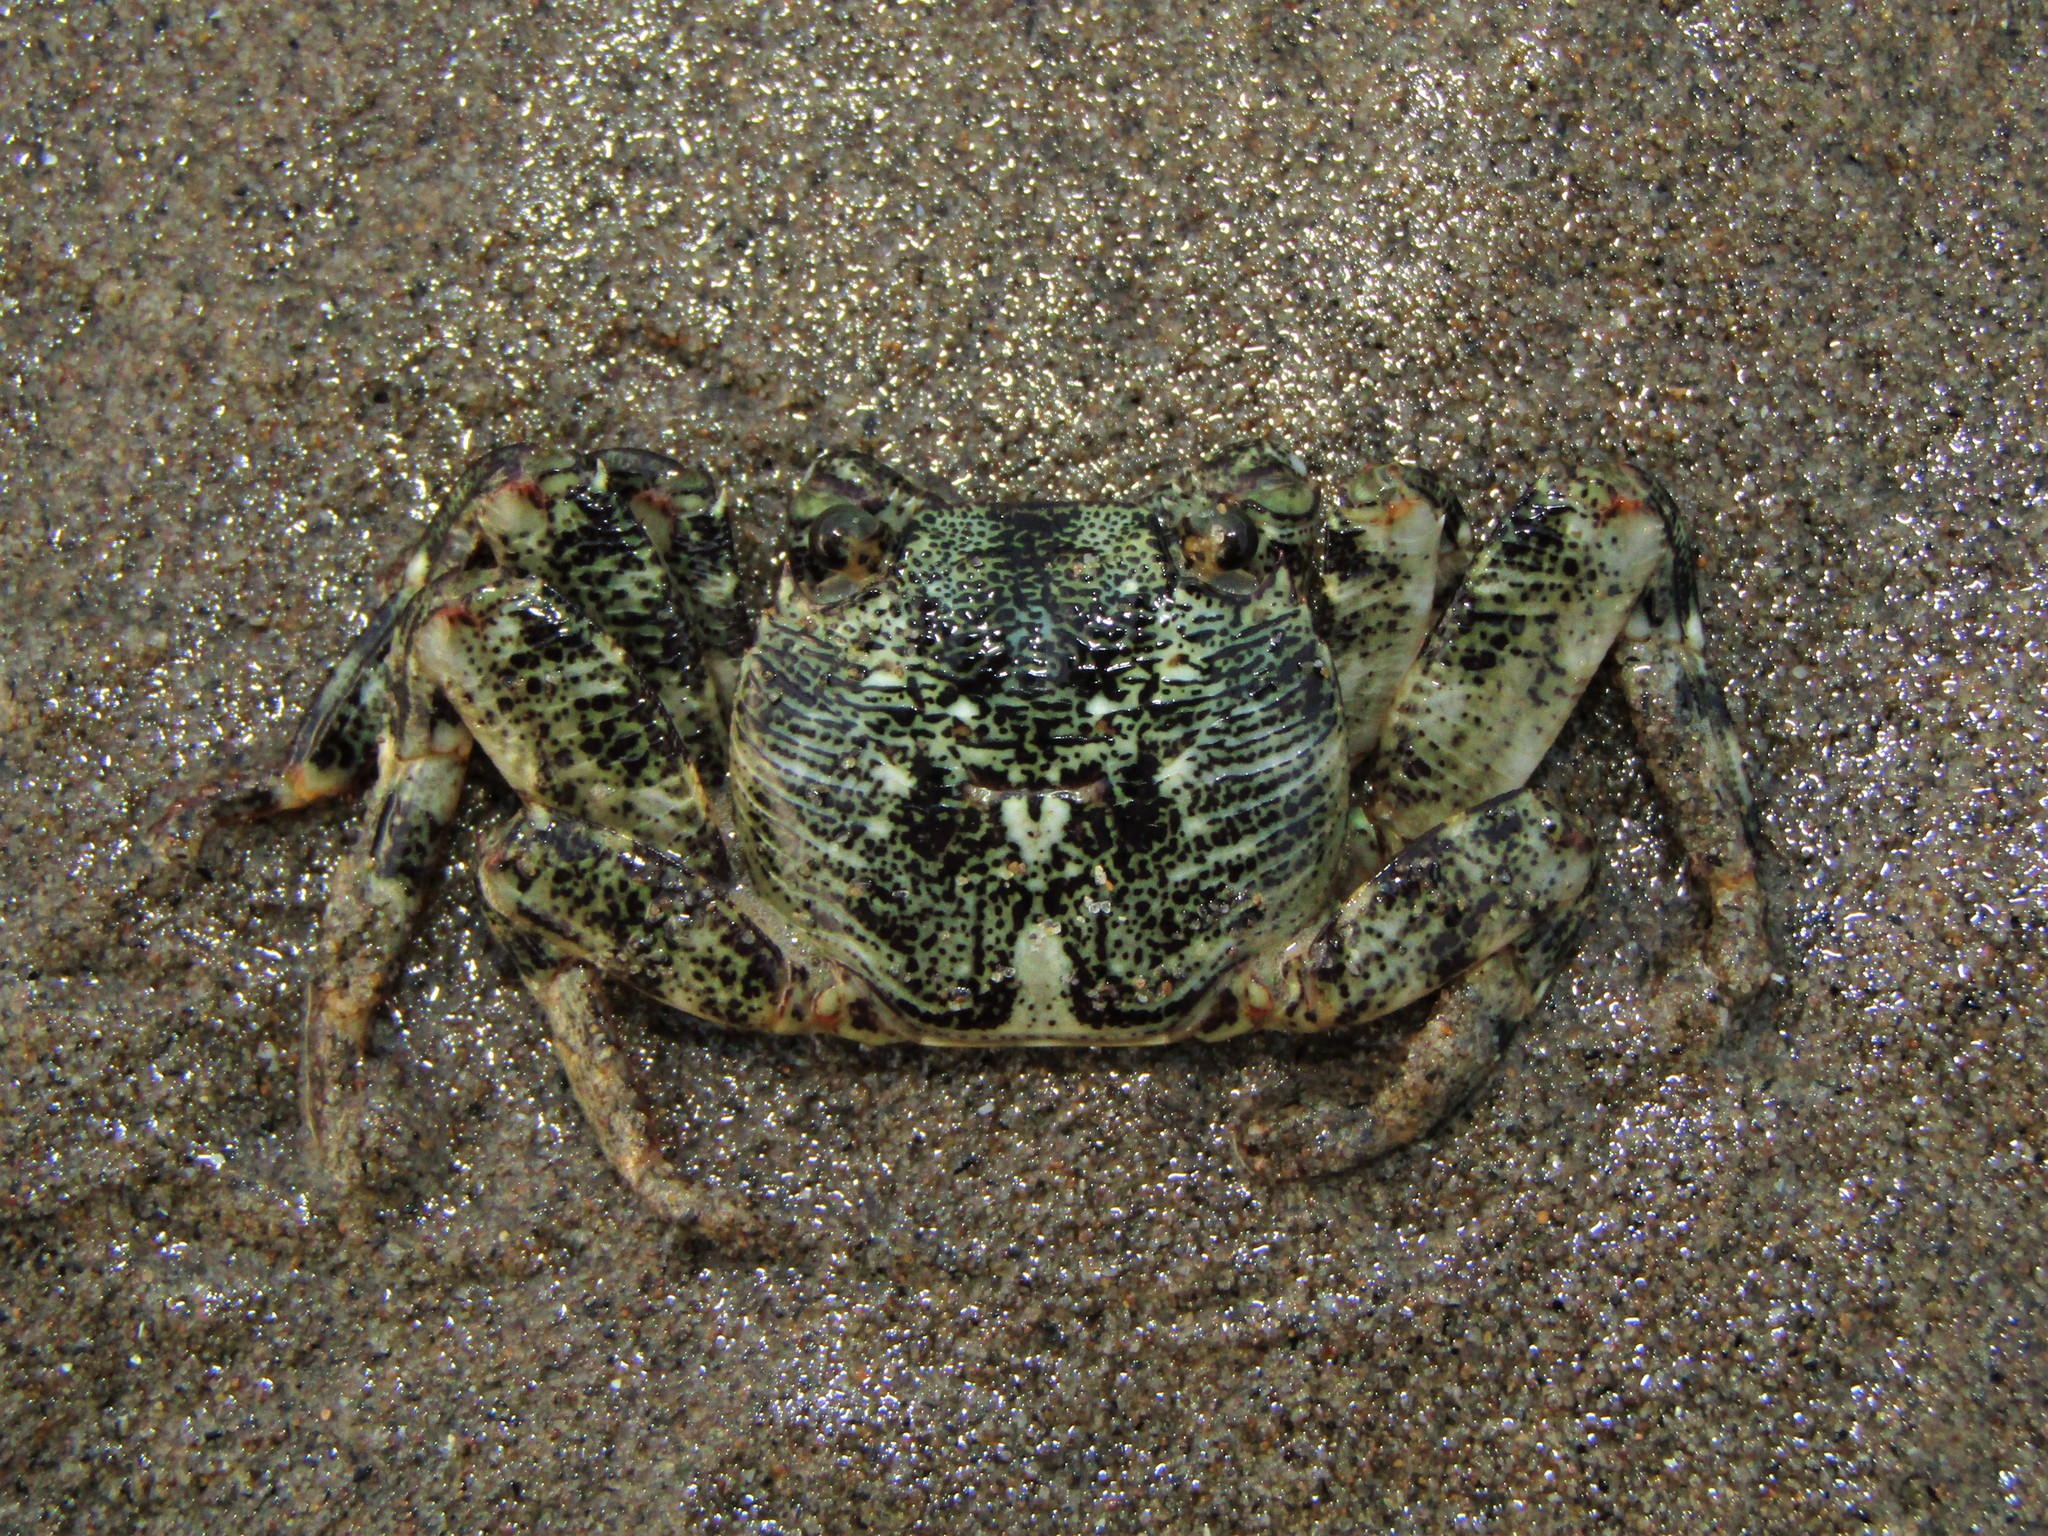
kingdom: Animalia
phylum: Arthropoda
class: Malacostraca
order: Decapoda
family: Grapsidae
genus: Leptograpsus
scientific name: Leptograpsus variegatus
